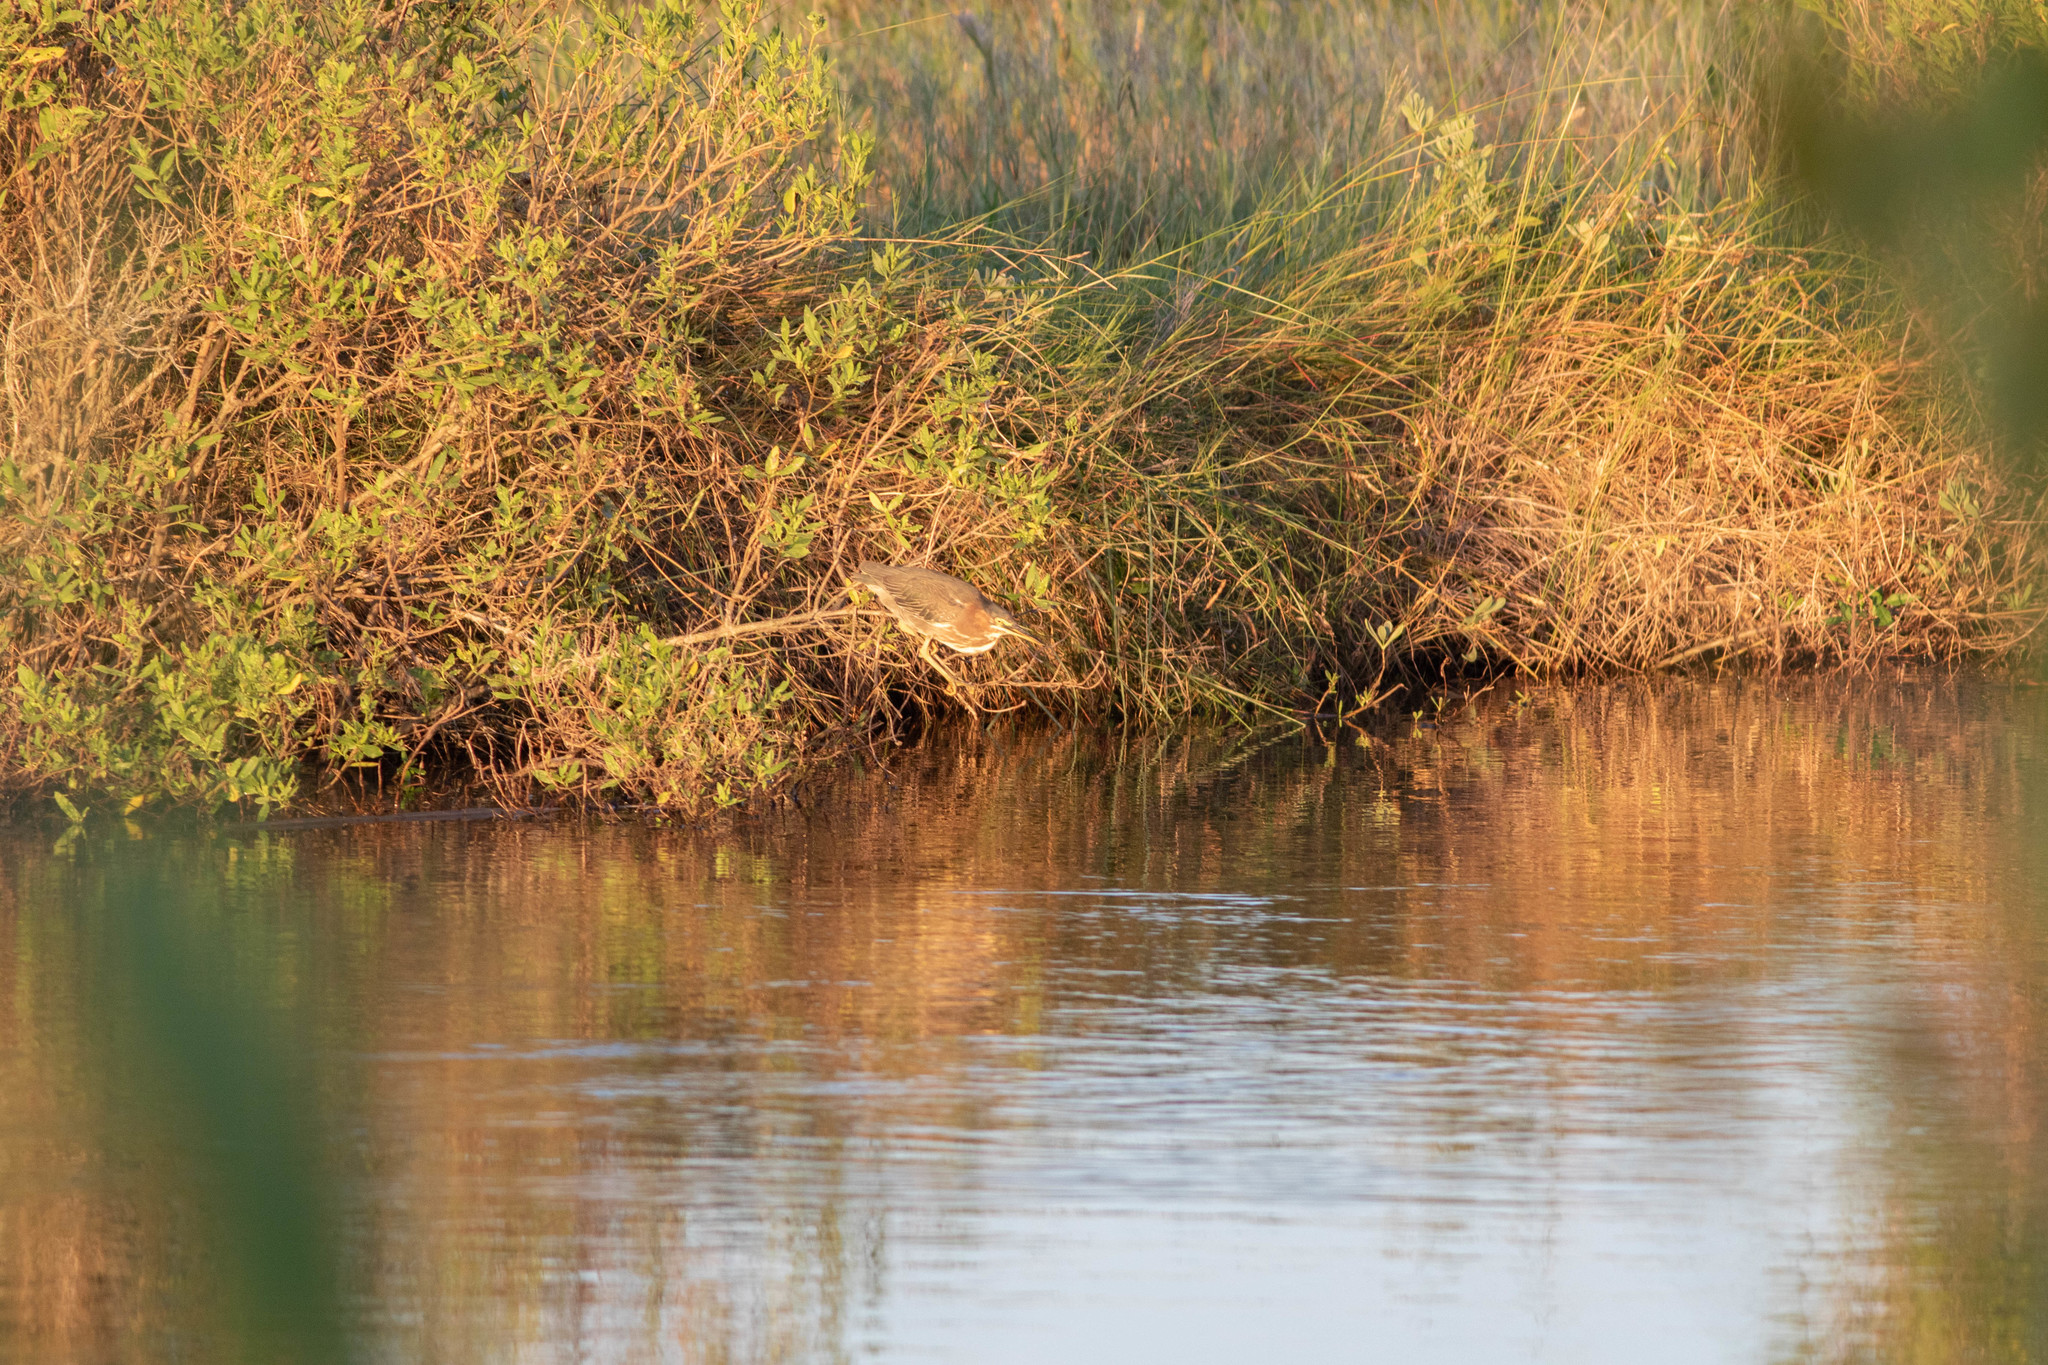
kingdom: Animalia
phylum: Chordata
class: Aves
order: Pelecaniformes
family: Ardeidae
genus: Butorides
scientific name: Butorides virescens
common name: Green heron
